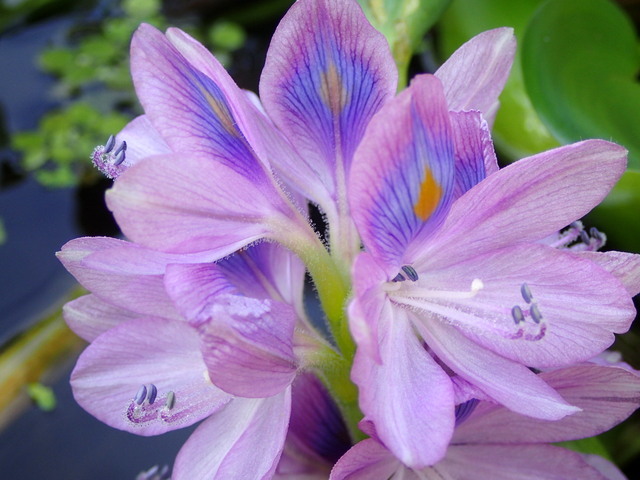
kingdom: Plantae
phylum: Tracheophyta
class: Liliopsida
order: Commelinales
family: Pontederiaceae
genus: Pontederia
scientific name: Pontederia crassipes
